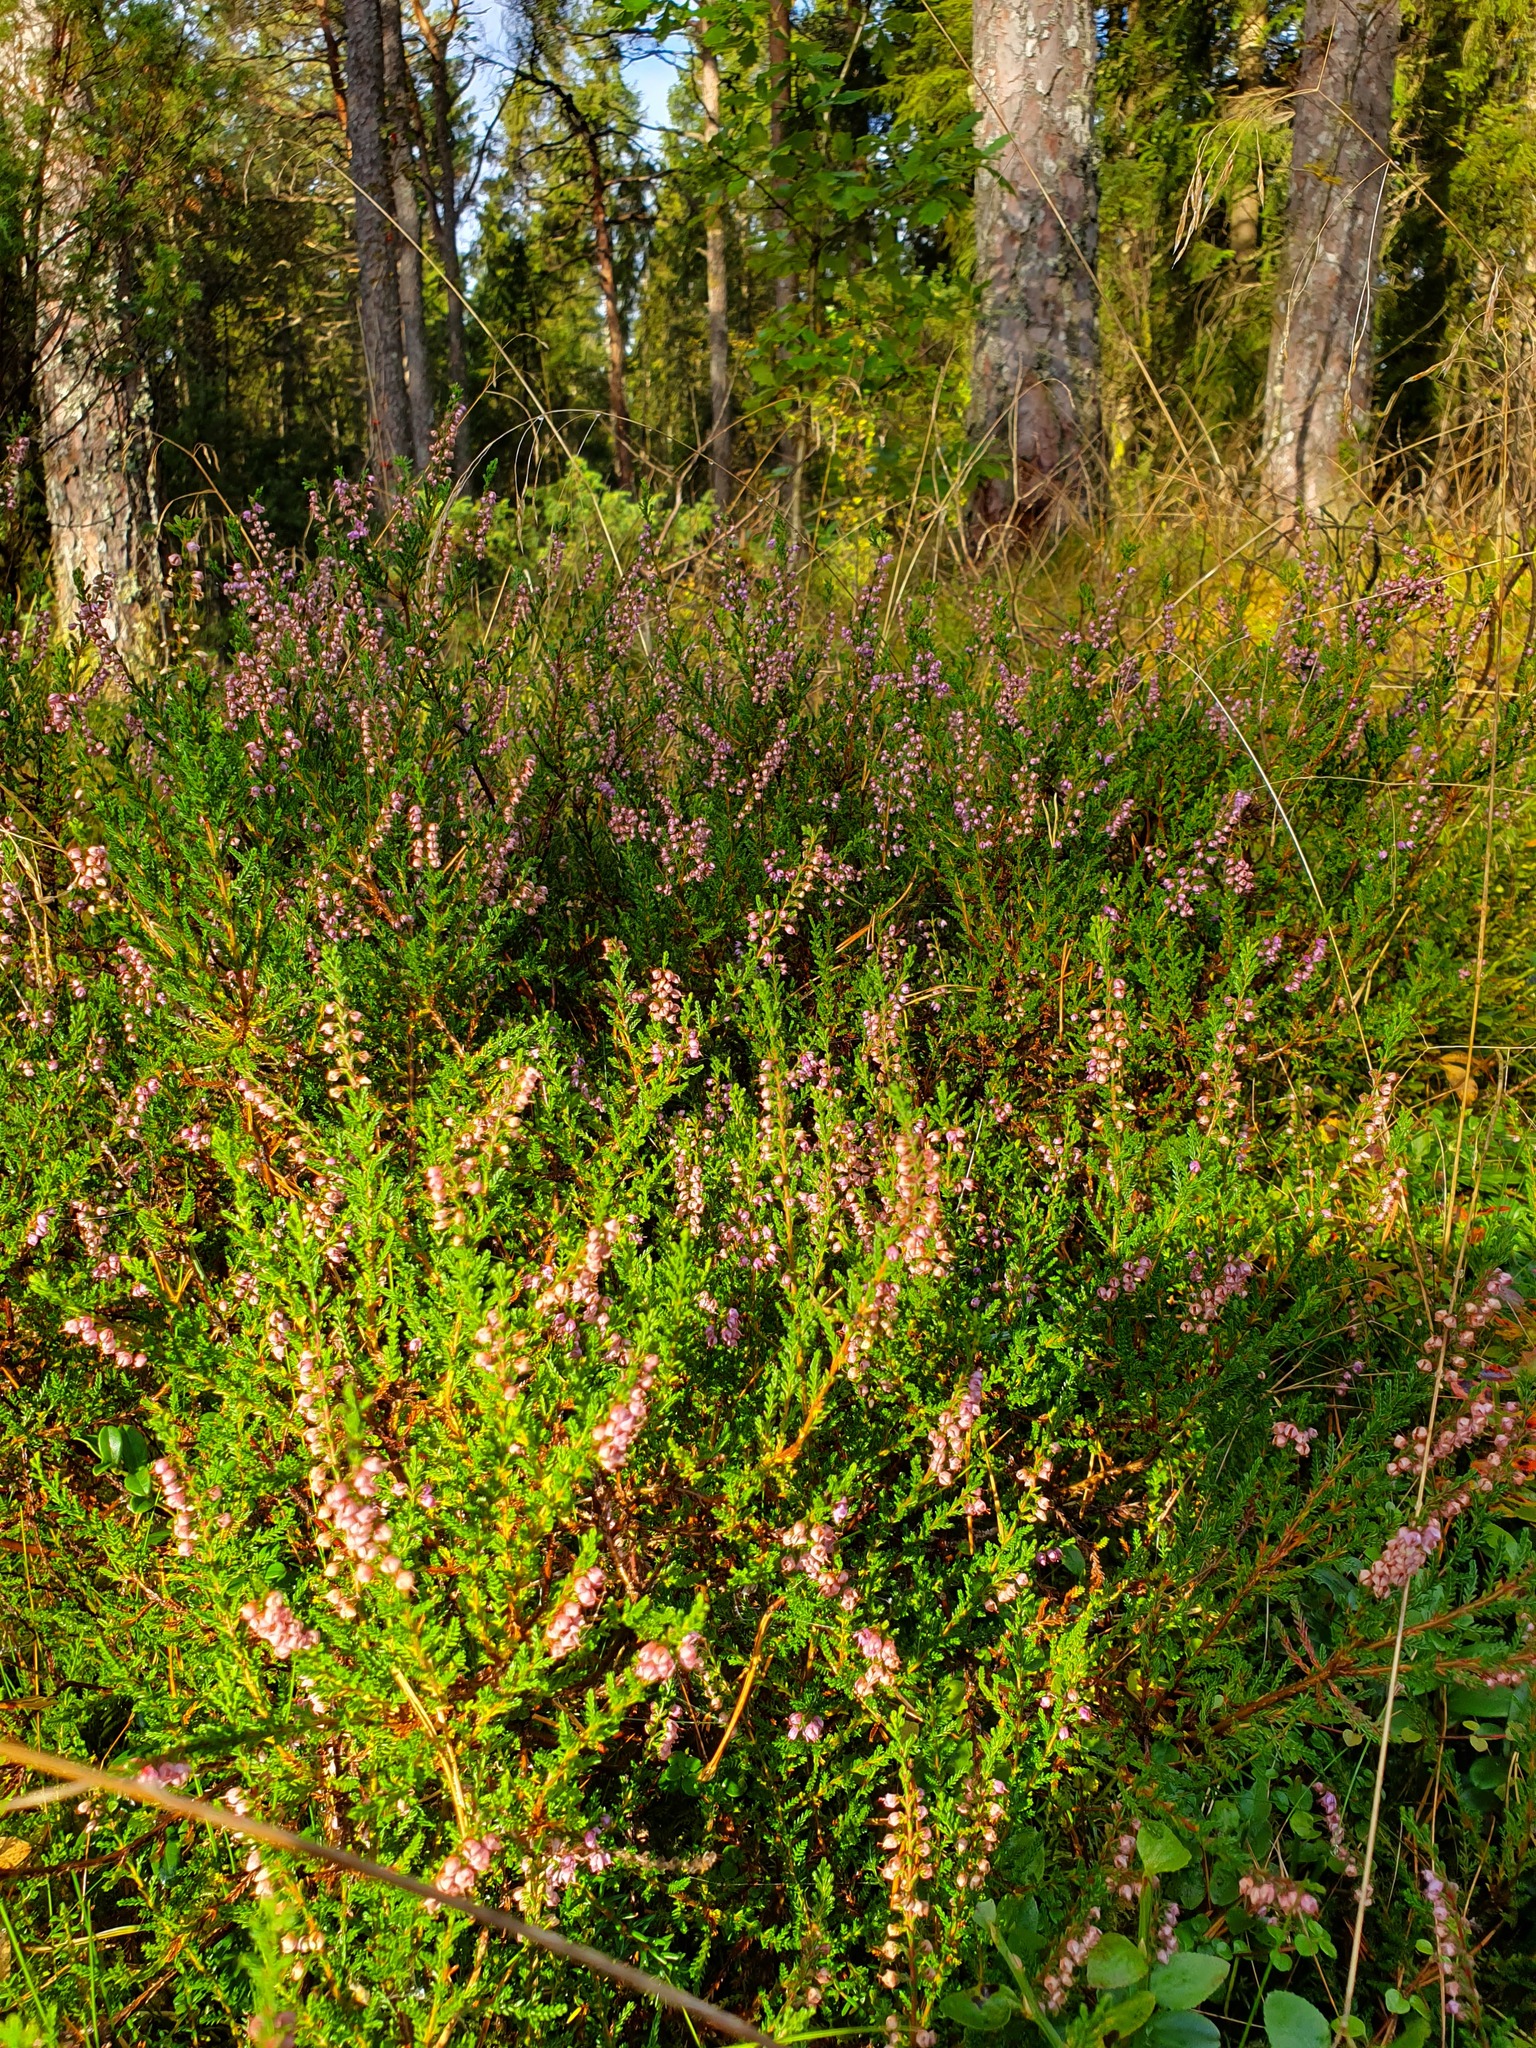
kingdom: Plantae
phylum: Tracheophyta
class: Magnoliopsida
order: Ericales
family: Ericaceae
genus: Calluna
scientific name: Calluna vulgaris
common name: Heather
